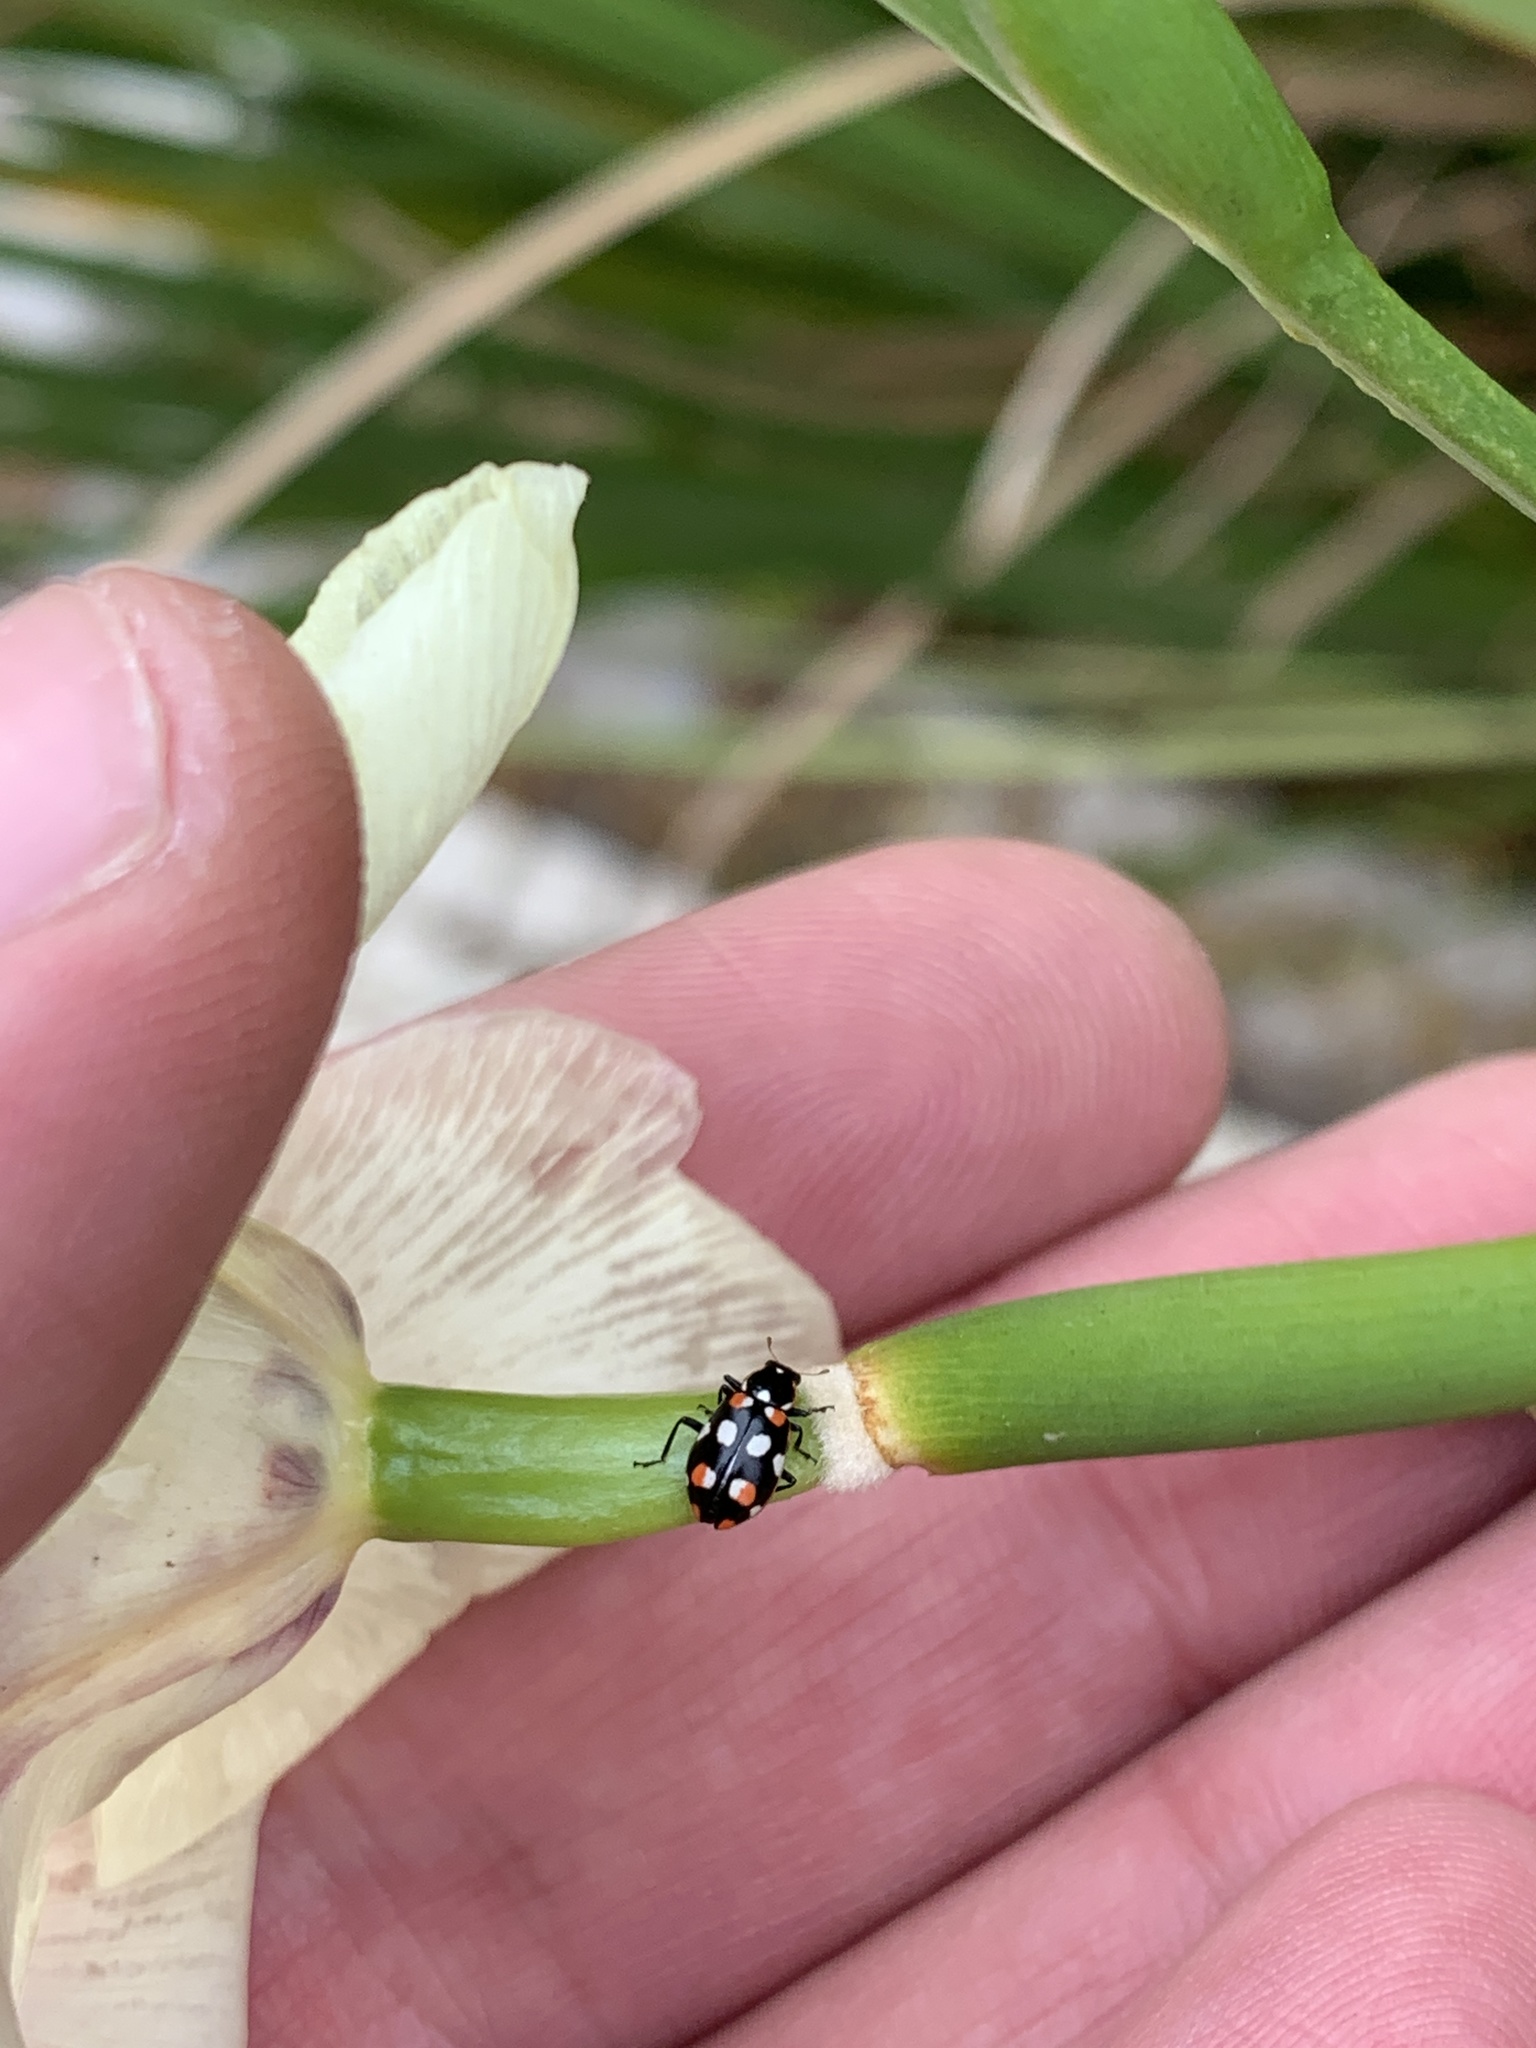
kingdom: Animalia
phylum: Arthropoda
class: Insecta
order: Coleoptera
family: Coccinellidae
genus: Eriopis
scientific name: Eriopis connexa
